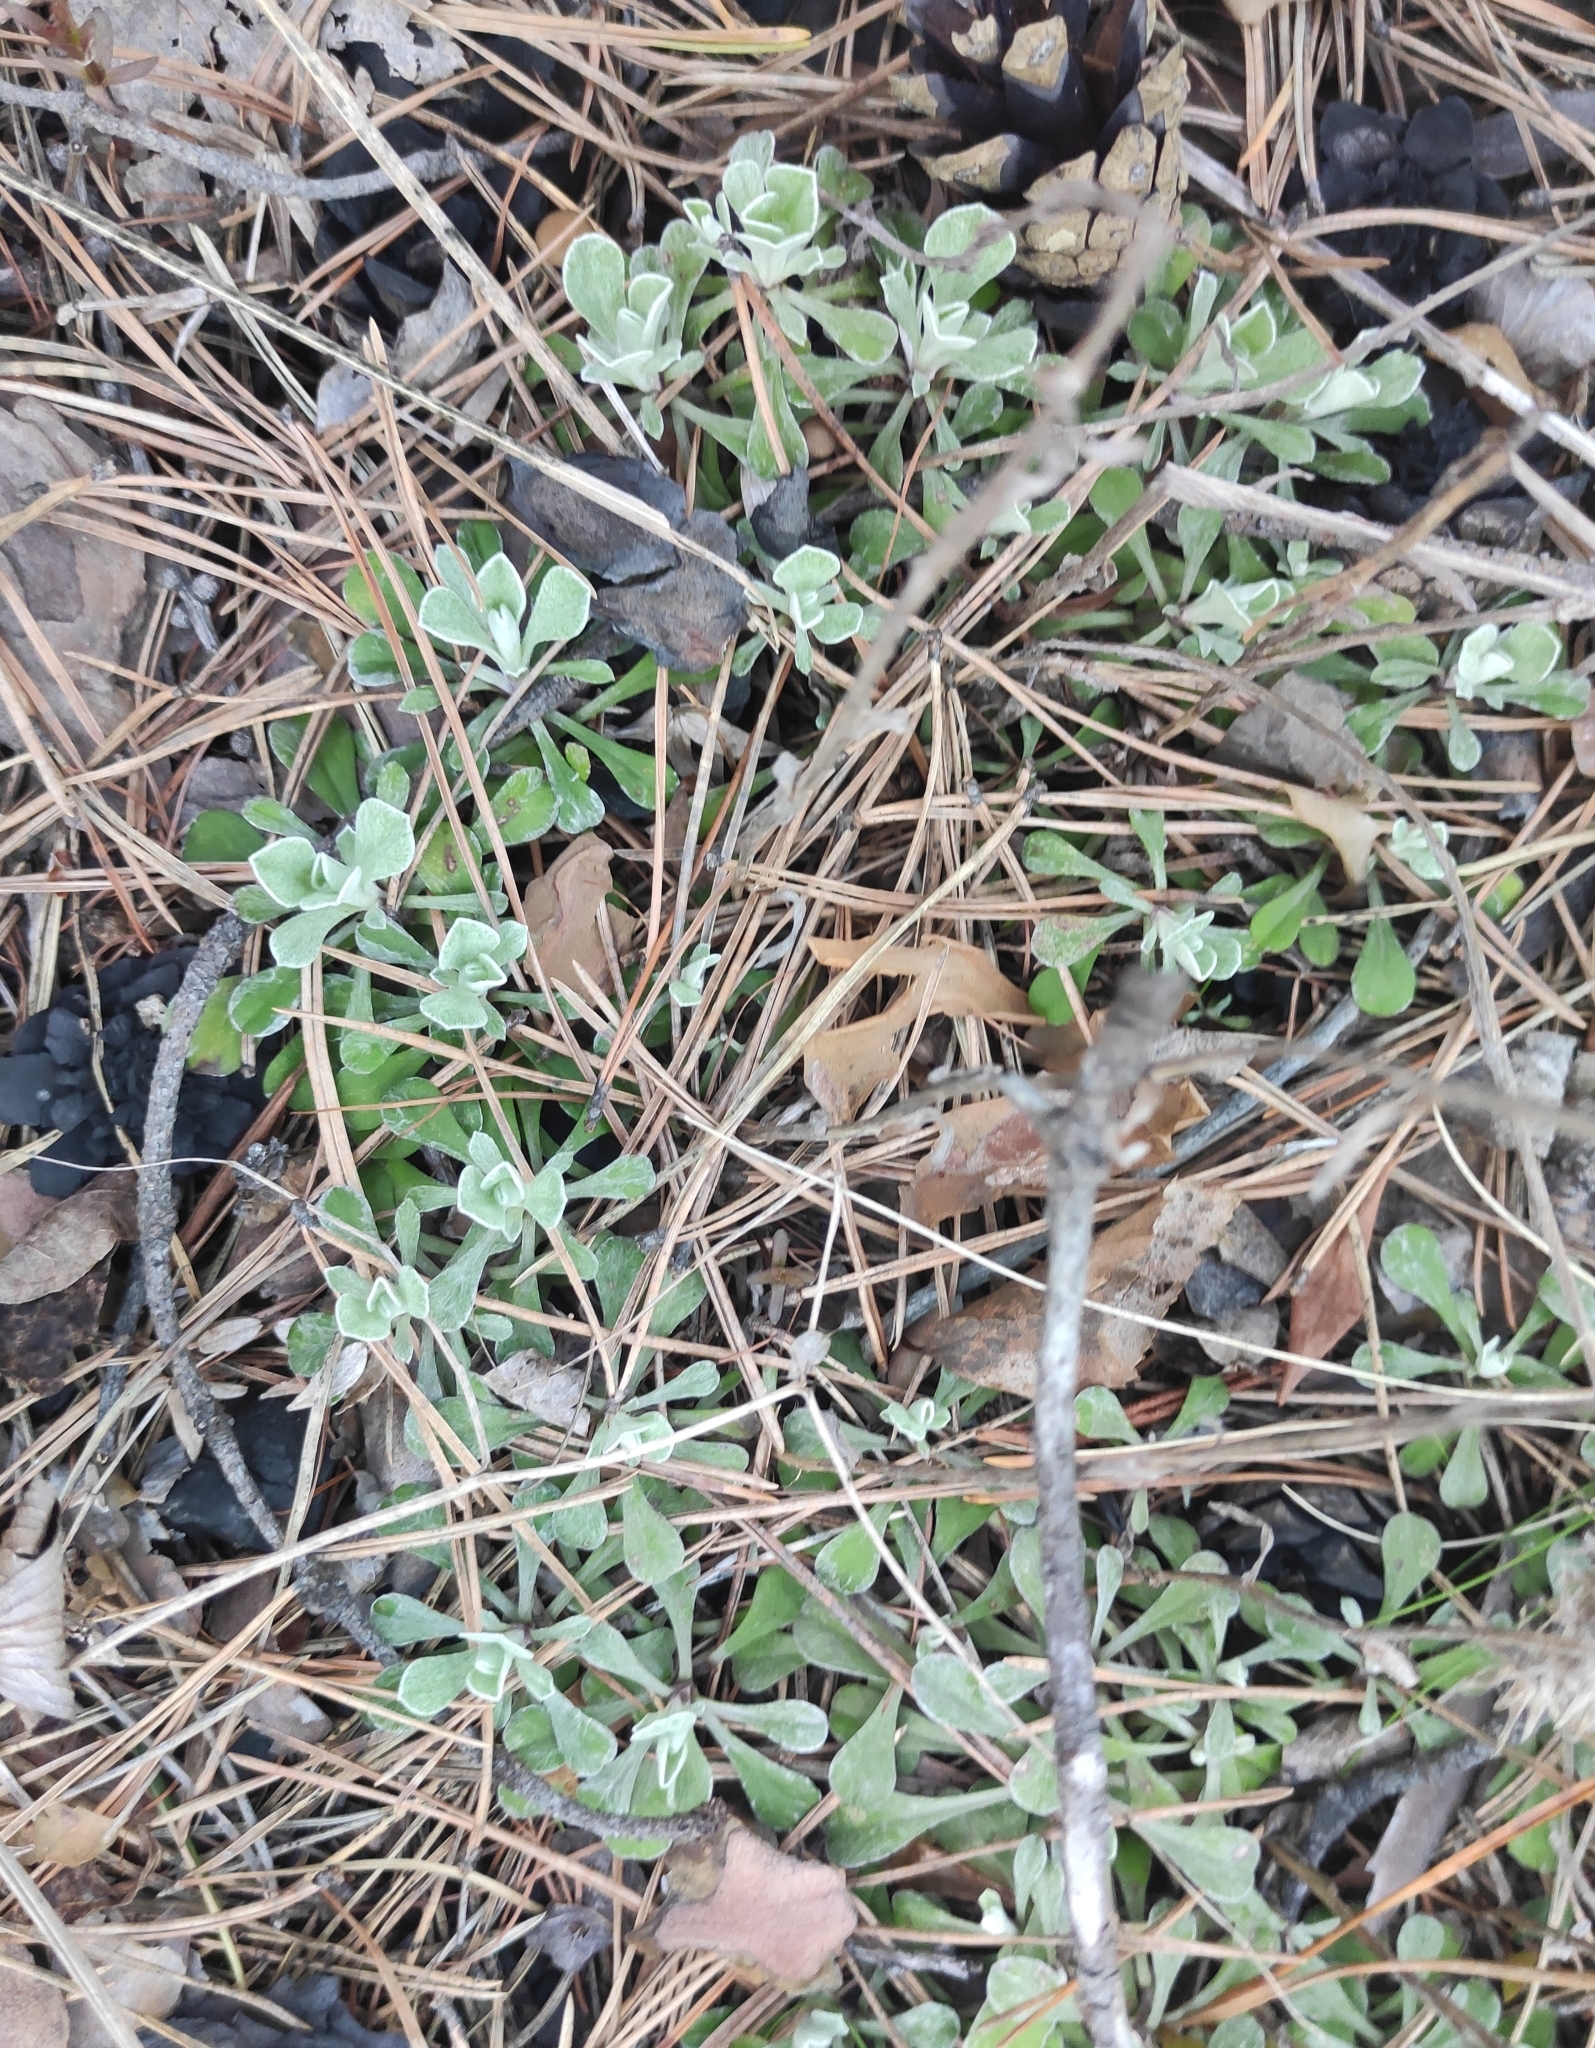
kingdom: Plantae
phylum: Tracheophyta
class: Magnoliopsida
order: Asterales
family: Asteraceae
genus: Antennaria
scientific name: Antennaria dioica
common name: Mountain everlasting
